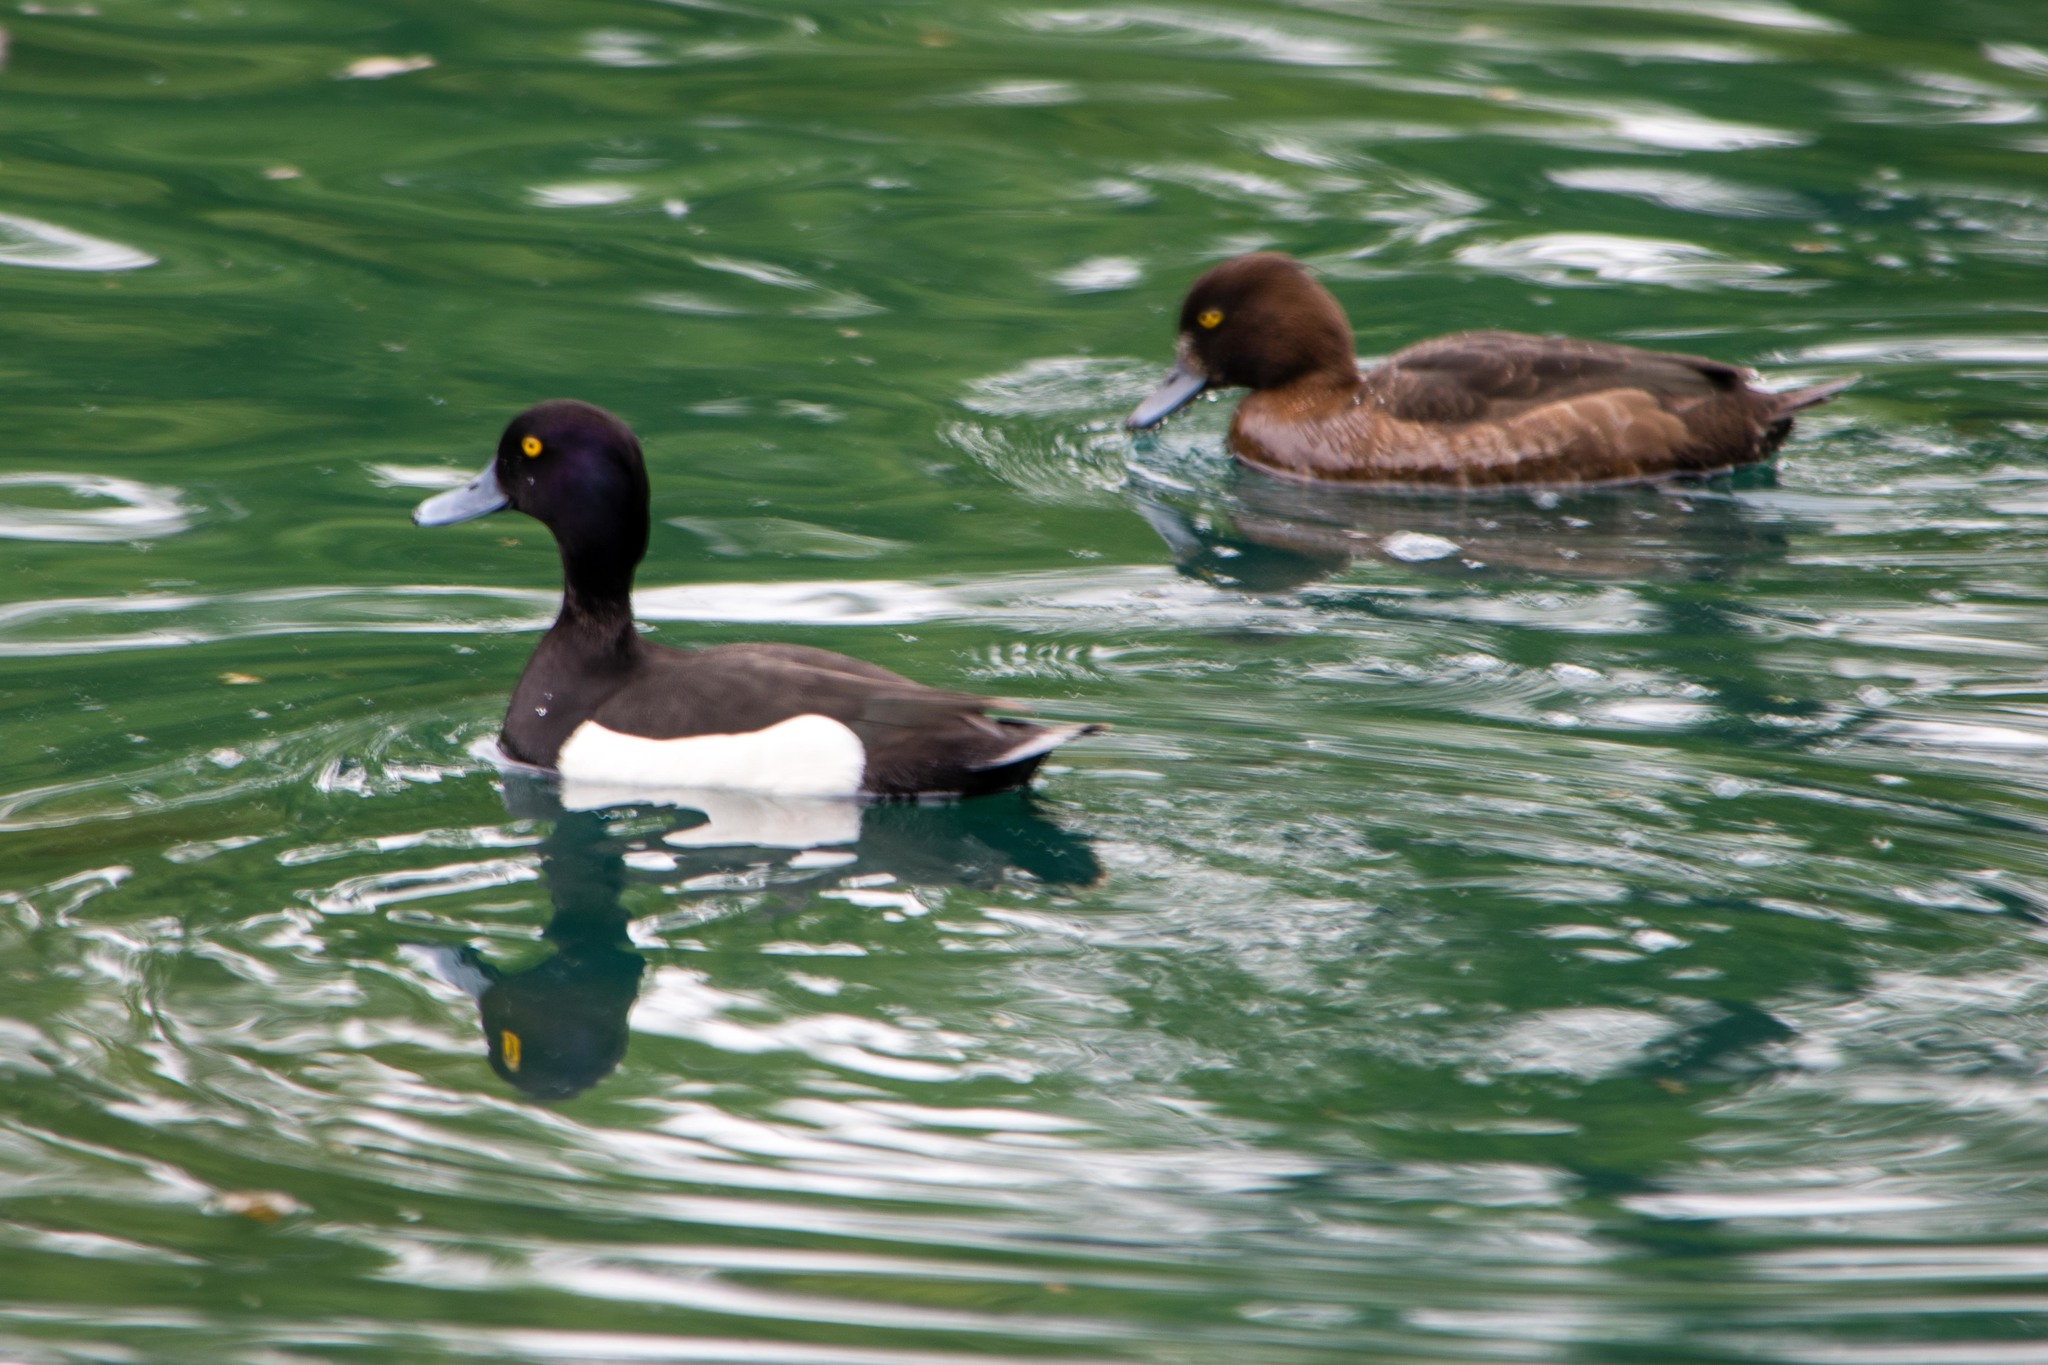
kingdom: Animalia
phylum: Chordata
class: Aves
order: Anseriformes
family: Anatidae
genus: Aythya
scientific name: Aythya fuligula
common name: Tufted duck
